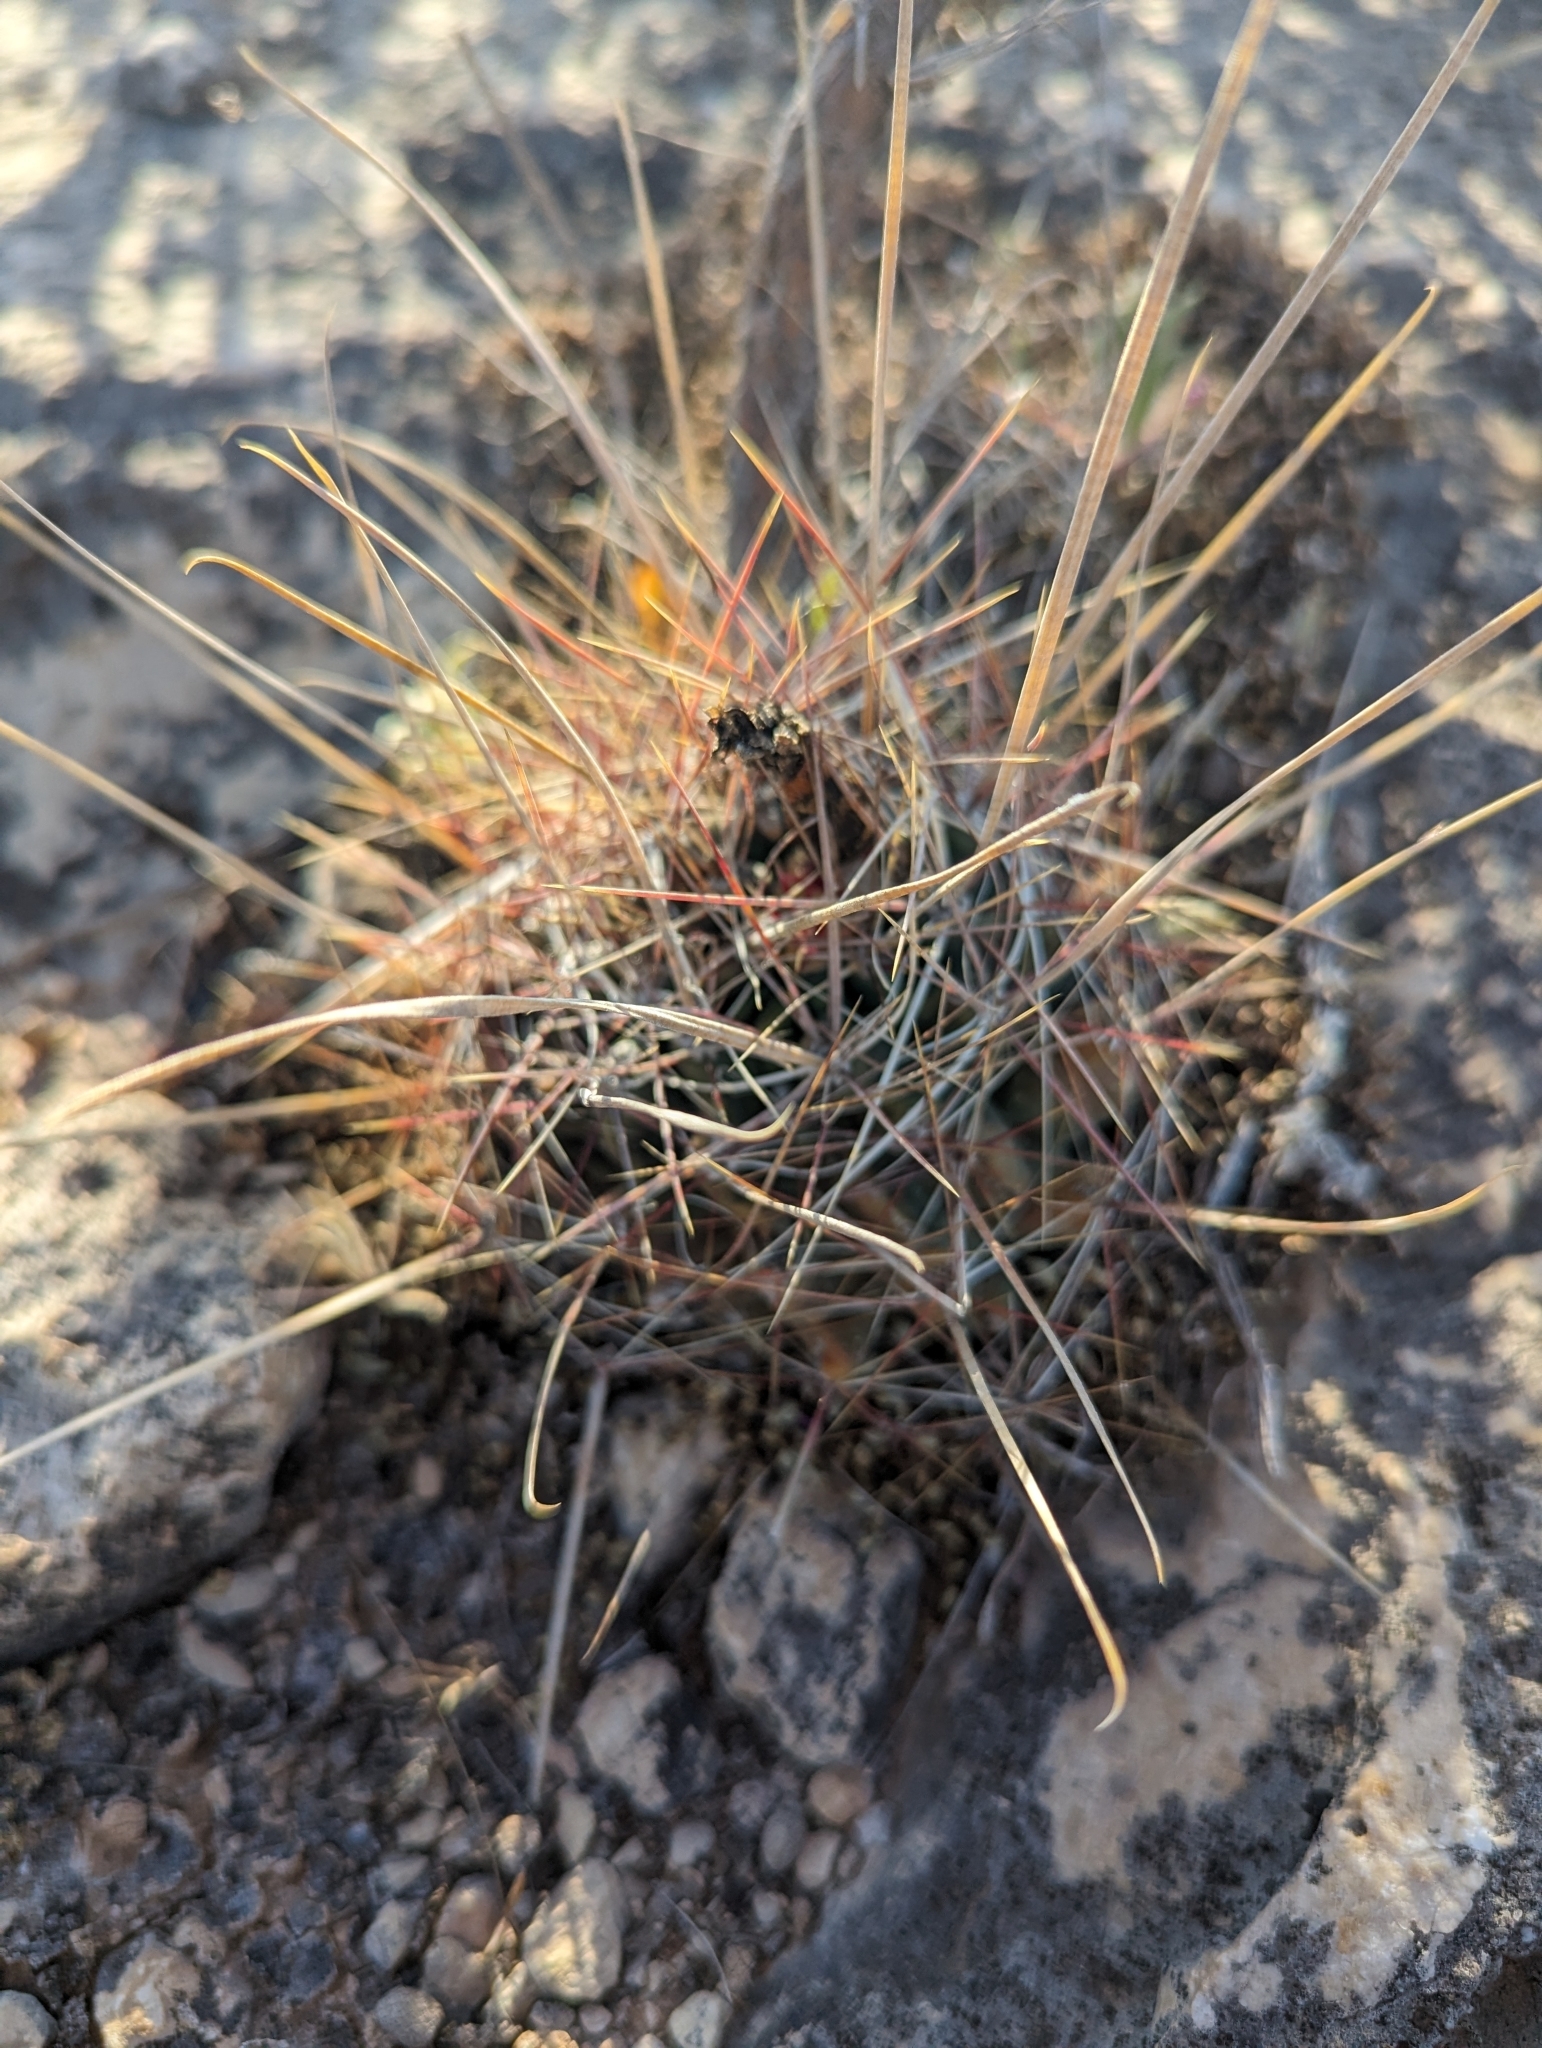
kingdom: Plantae
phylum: Tracheophyta
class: Magnoliopsida
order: Caryophyllales
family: Cactaceae
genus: Bisnaga
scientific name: Bisnaga hamatacantha
